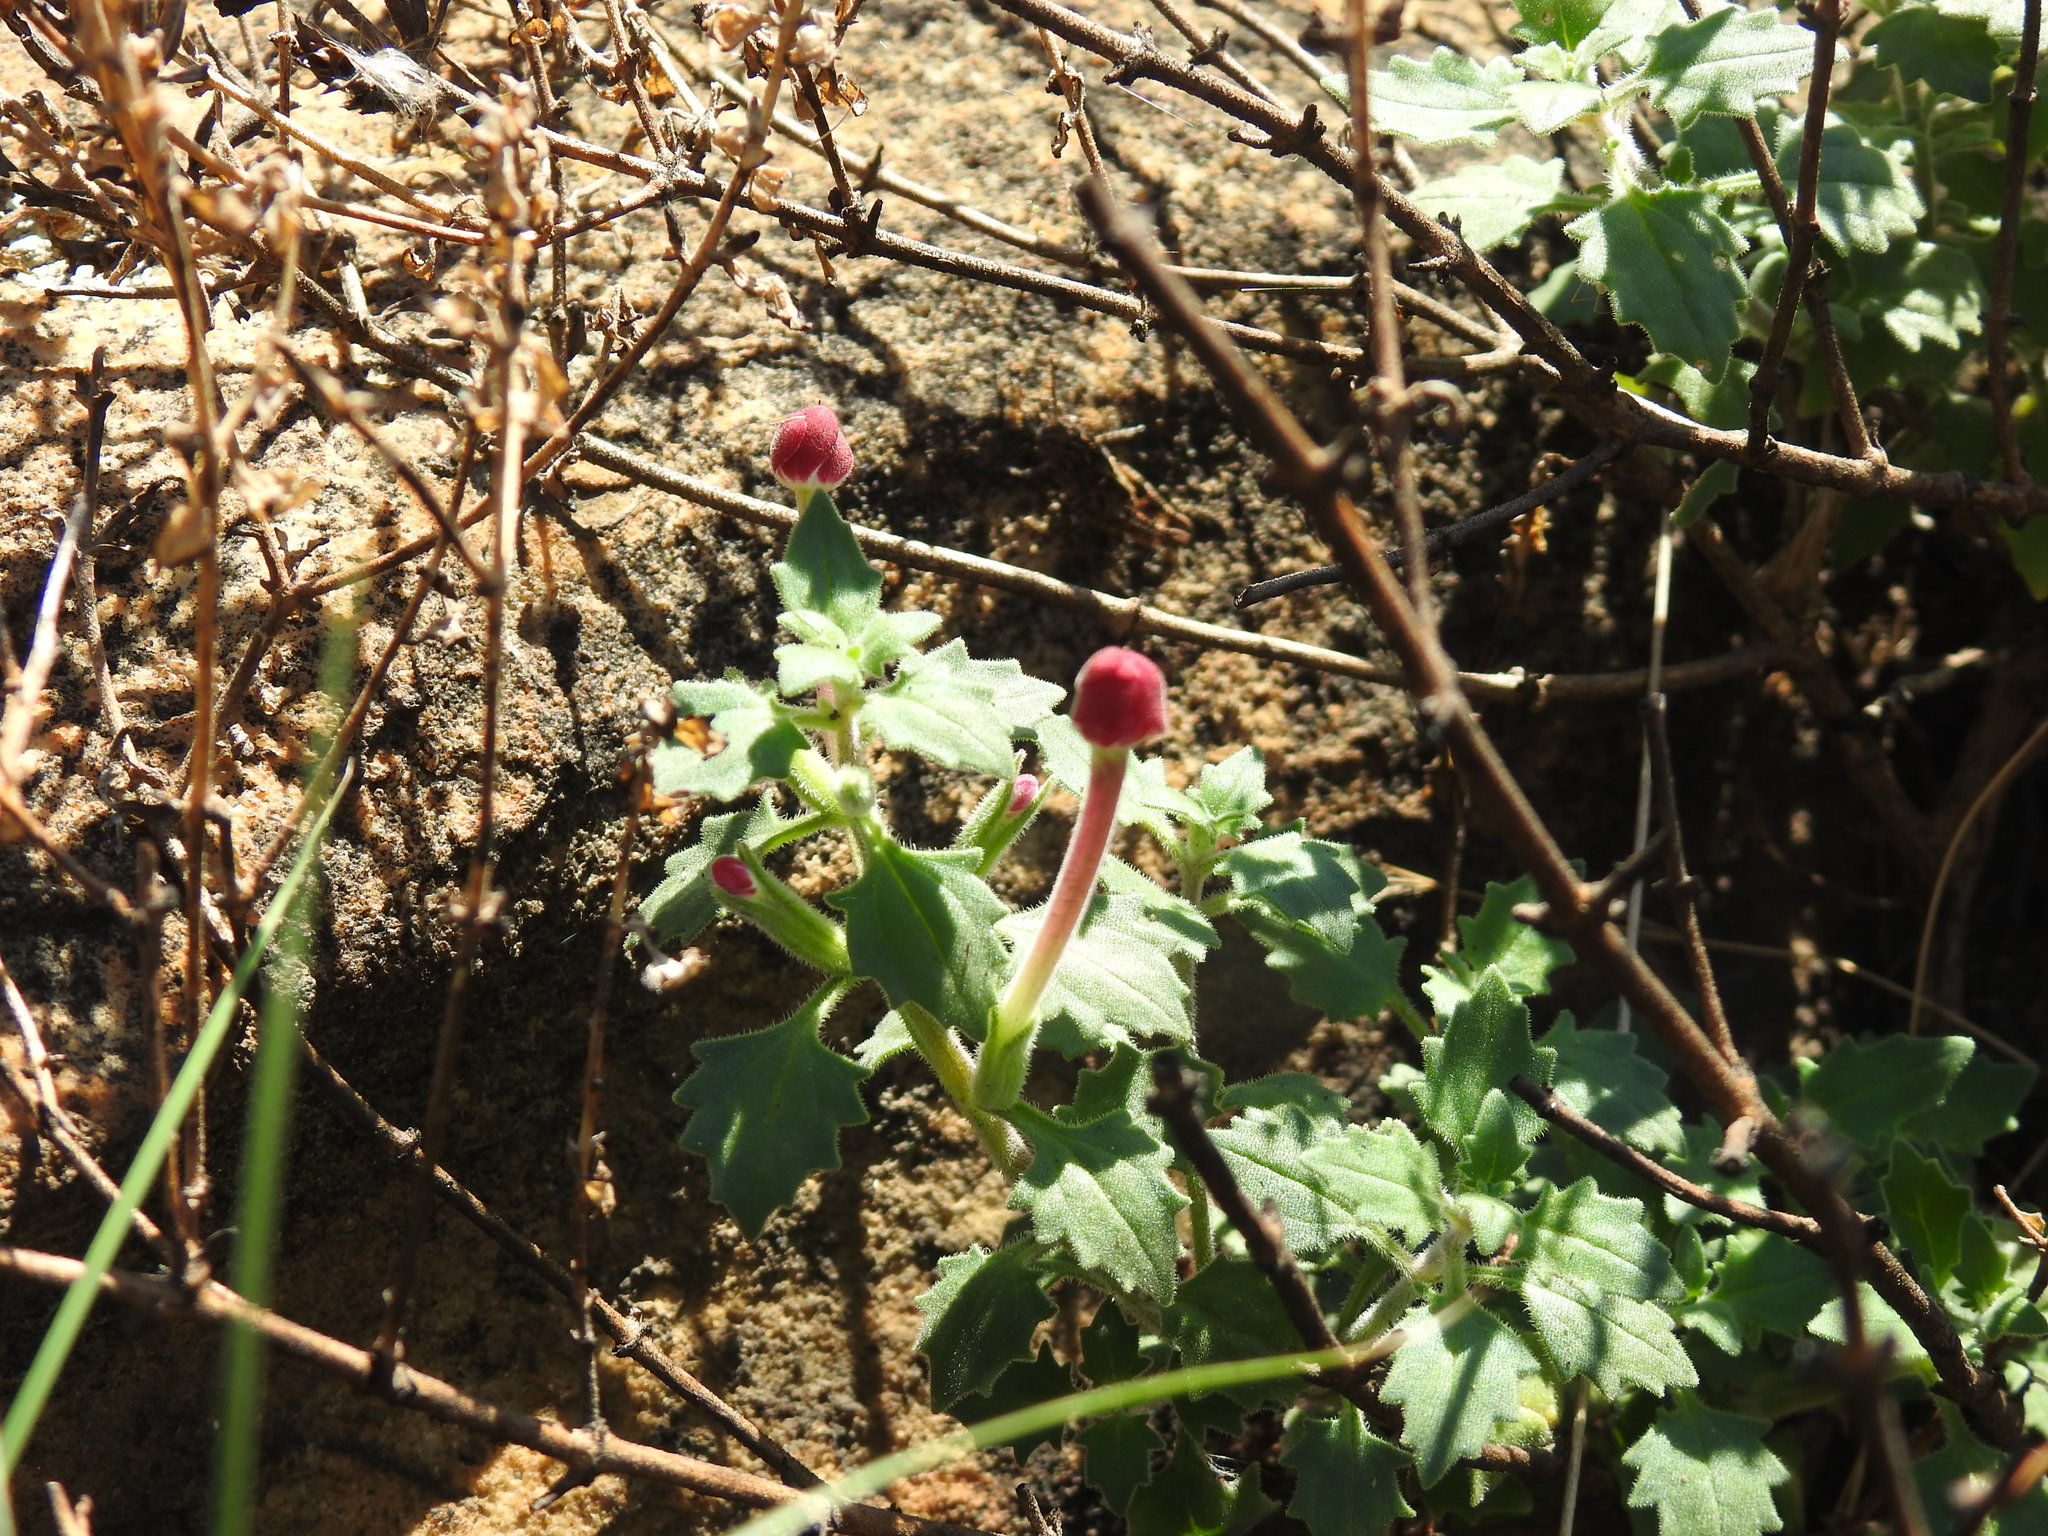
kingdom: Plantae
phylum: Tracheophyta
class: Magnoliopsida
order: Lamiales
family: Scrophulariaceae
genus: Zaluzianskya
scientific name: Zaluzianskya katharinae
